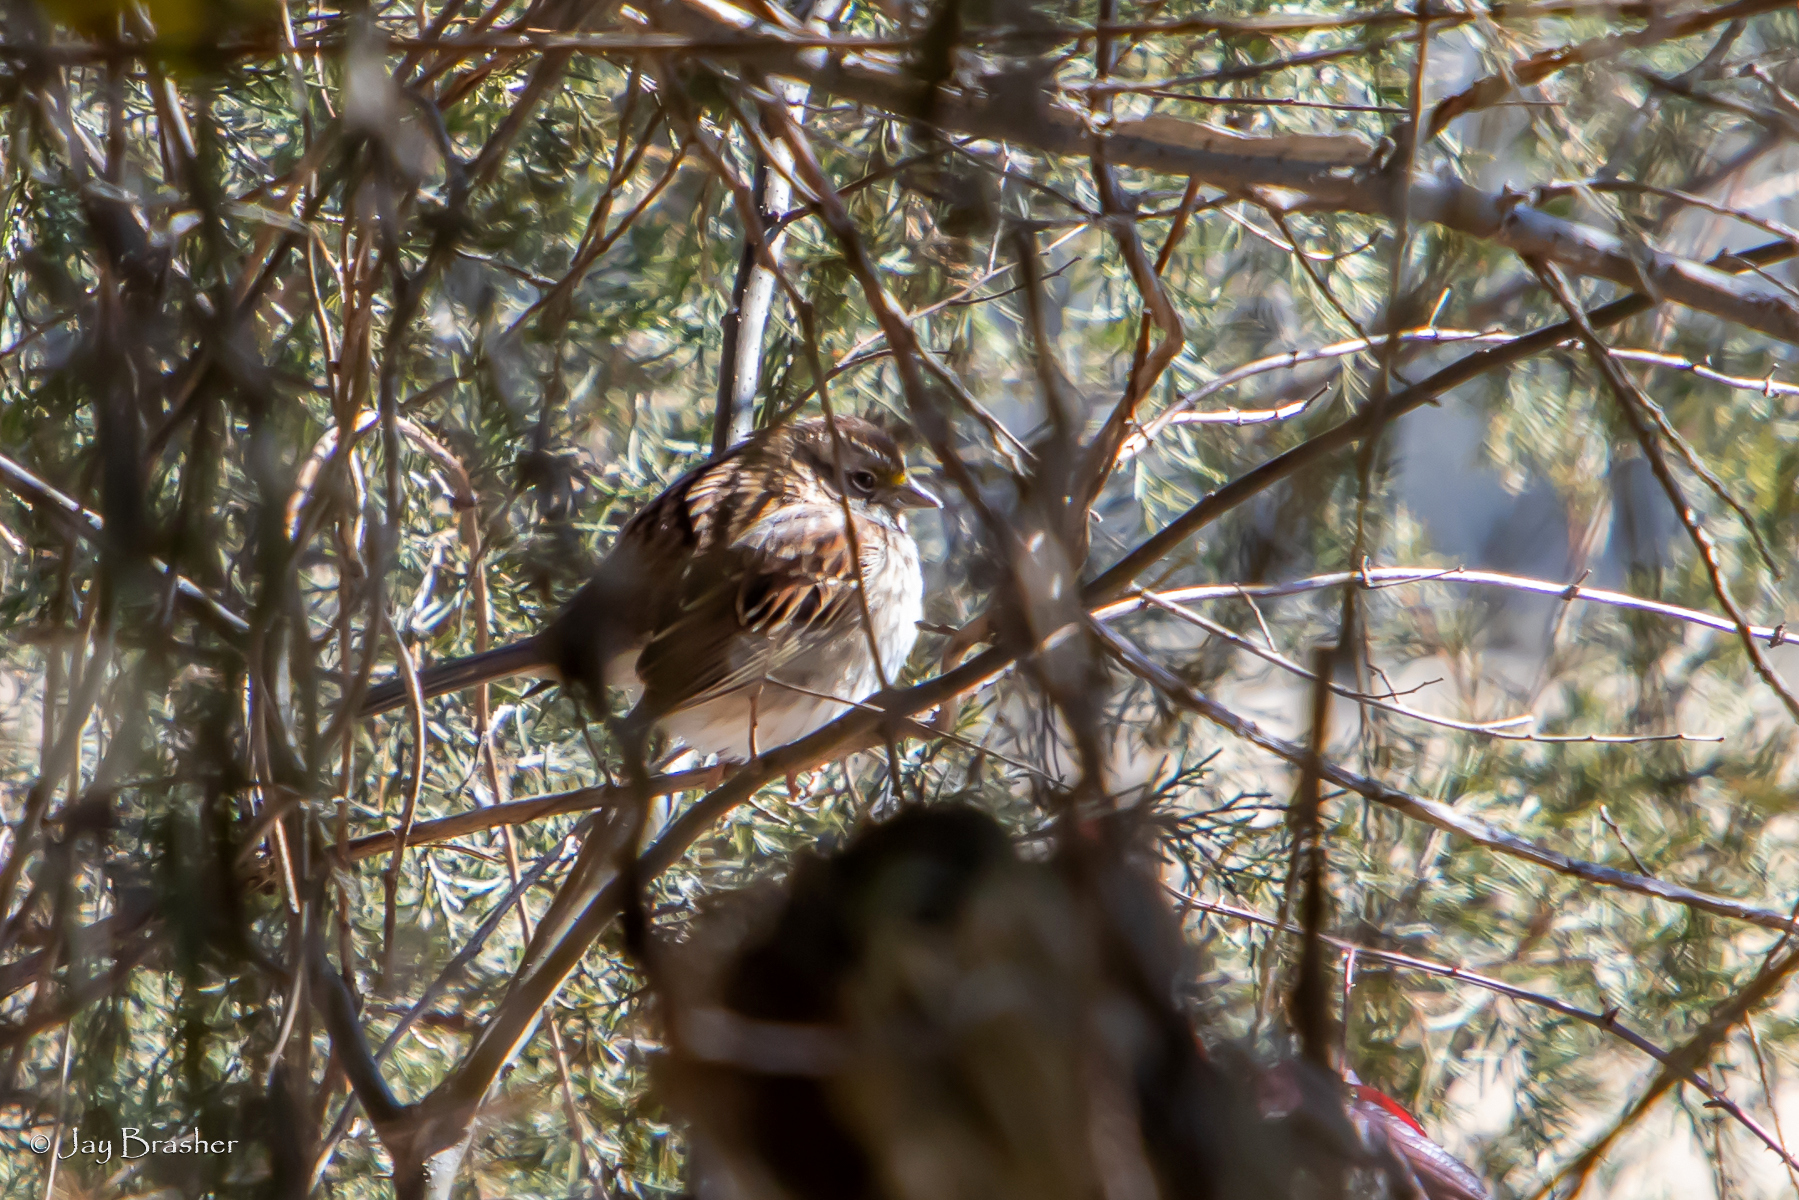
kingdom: Animalia
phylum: Chordata
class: Aves
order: Passeriformes
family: Passerellidae
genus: Zonotrichia
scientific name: Zonotrichia albicollis
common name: White-throated sparrow
